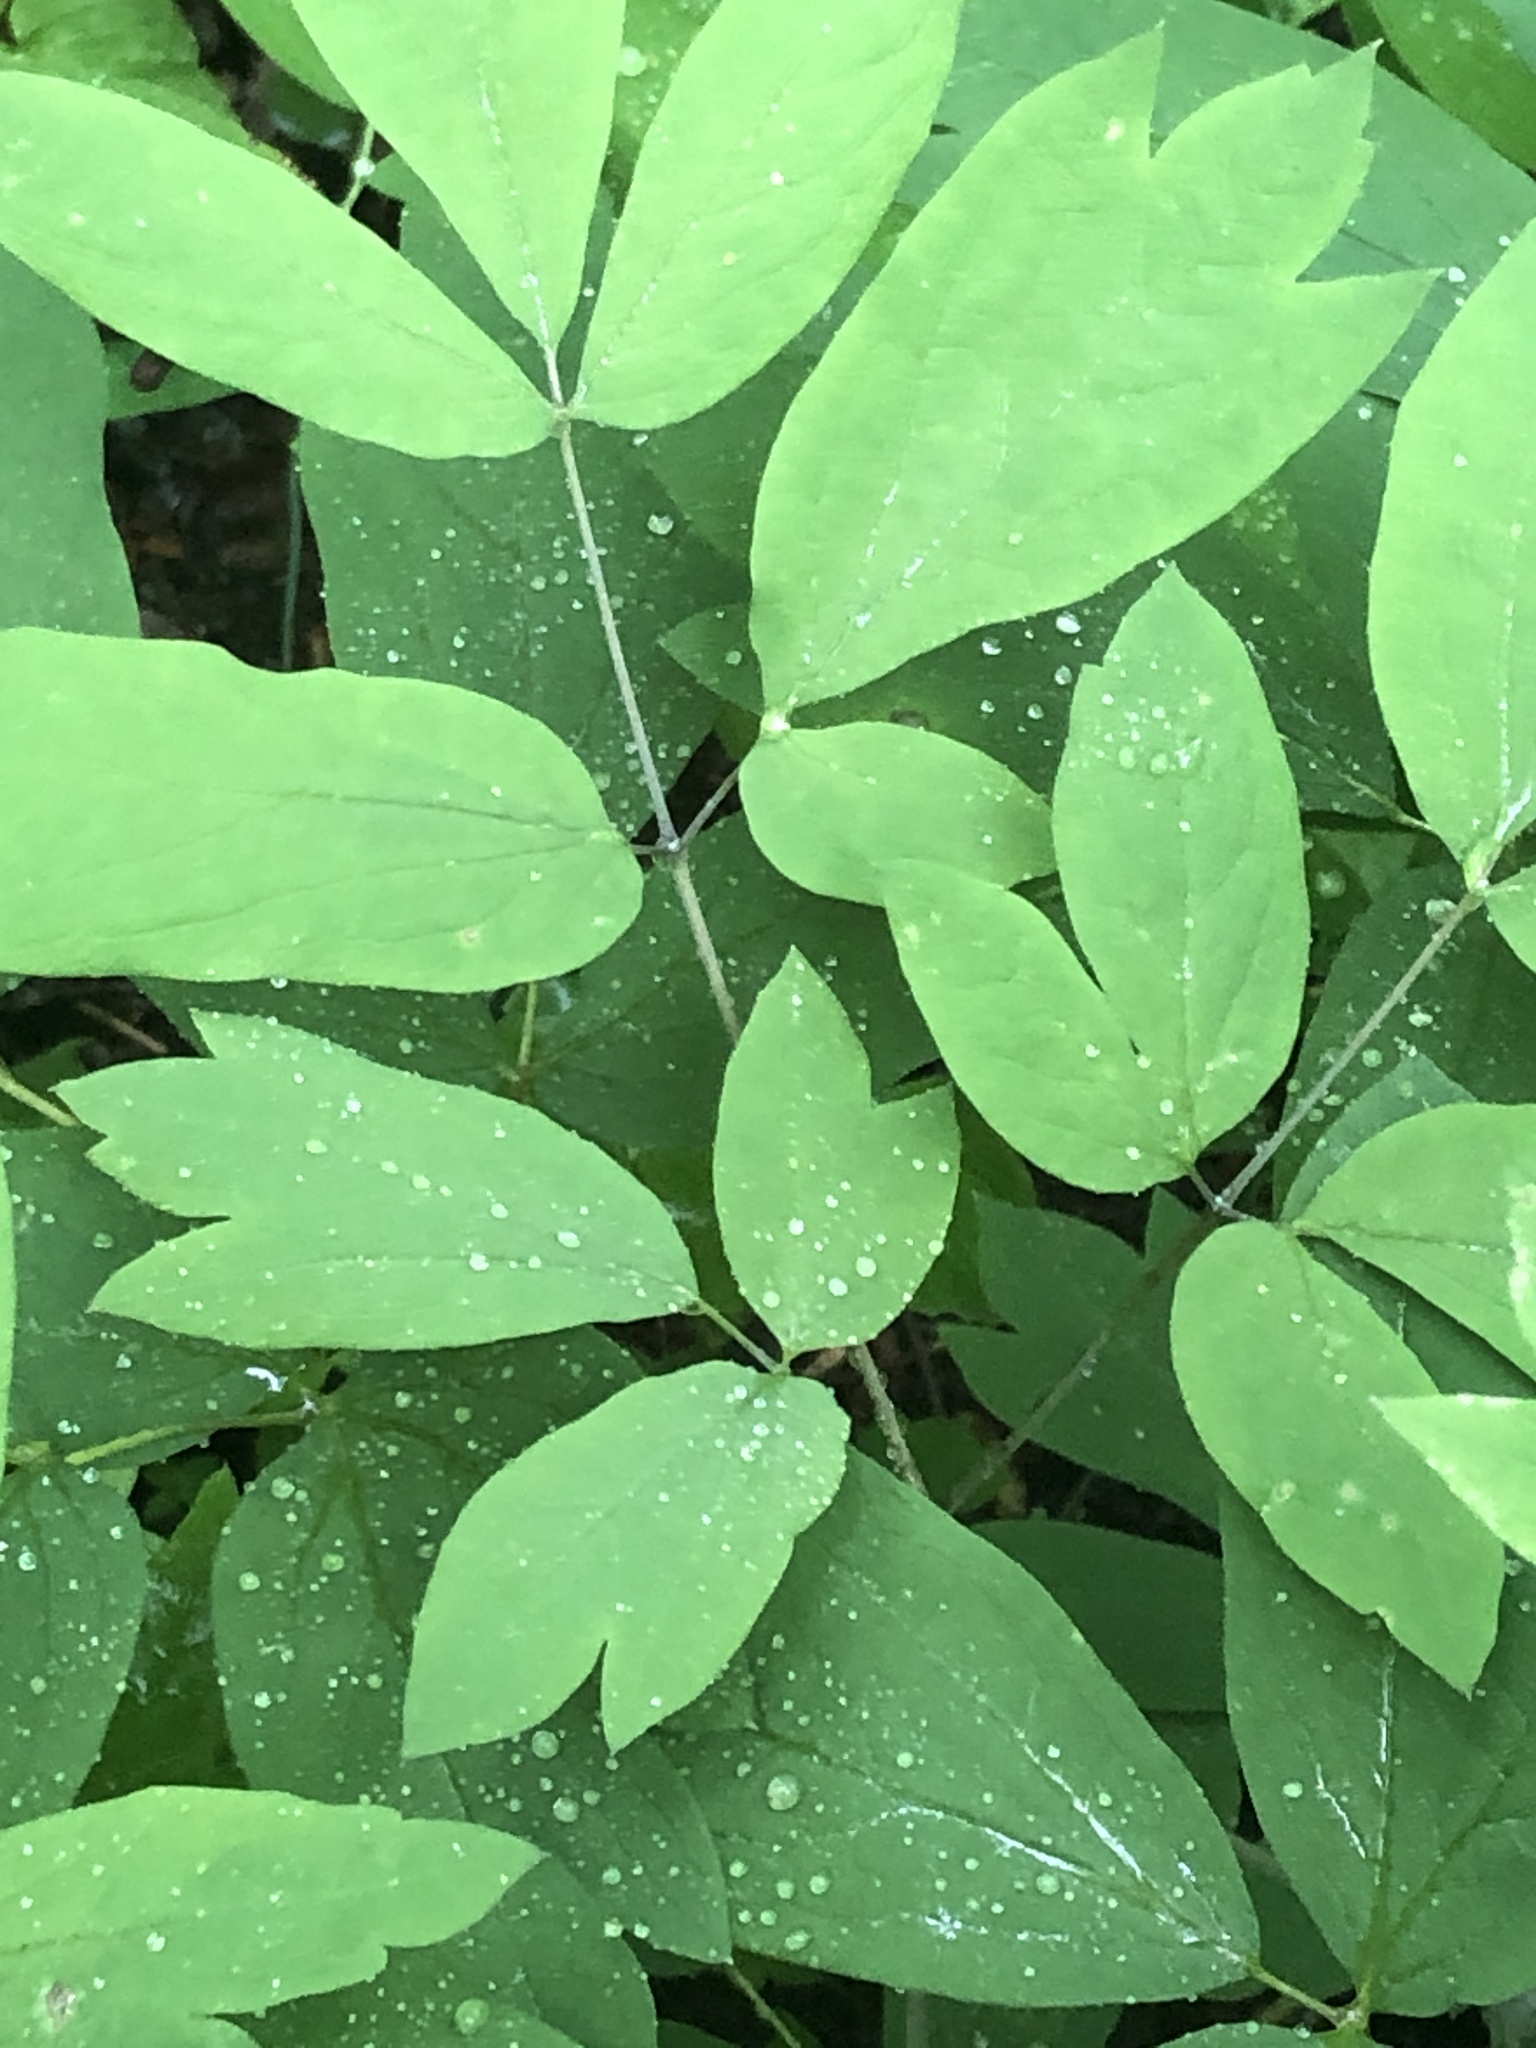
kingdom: Plantae
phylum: Tracheophyta
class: Magnoliopsida
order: Ranunculales
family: Berberidaceae
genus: Caulophyllum
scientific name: Caulophyllum thalictroides
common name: Blue cohosh
